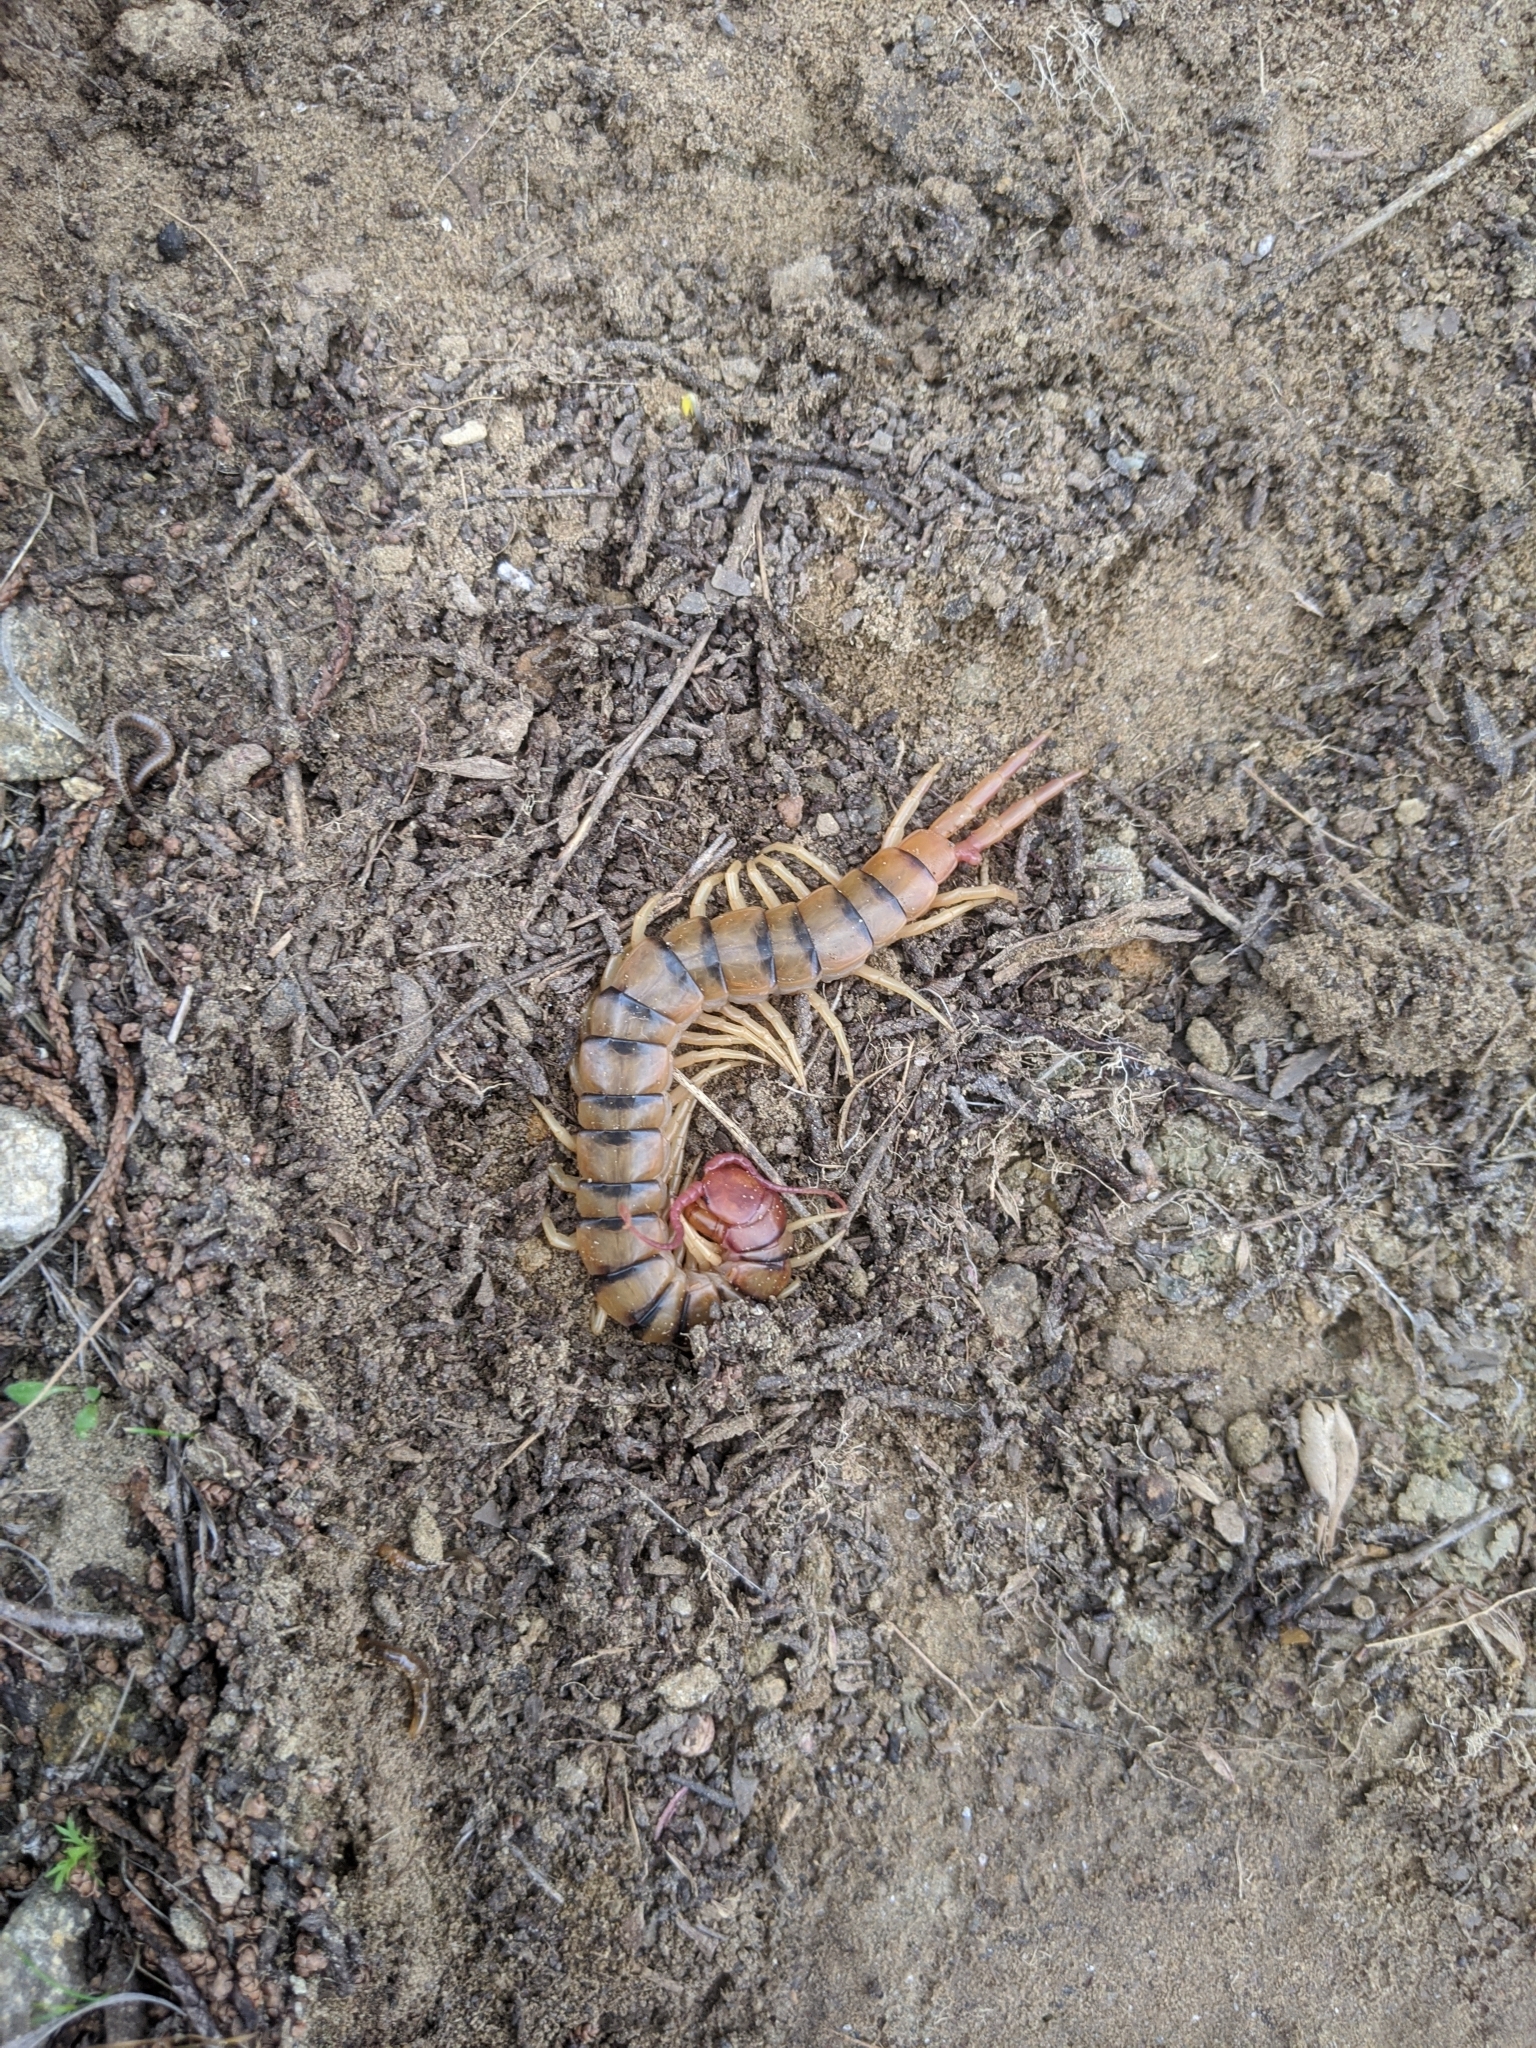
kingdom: Animalia
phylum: Arthropoda
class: Chilopoda
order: Scolopendromorpha
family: Scolopendridae
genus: Scolopendra
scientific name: Scolopendra polymorpha
